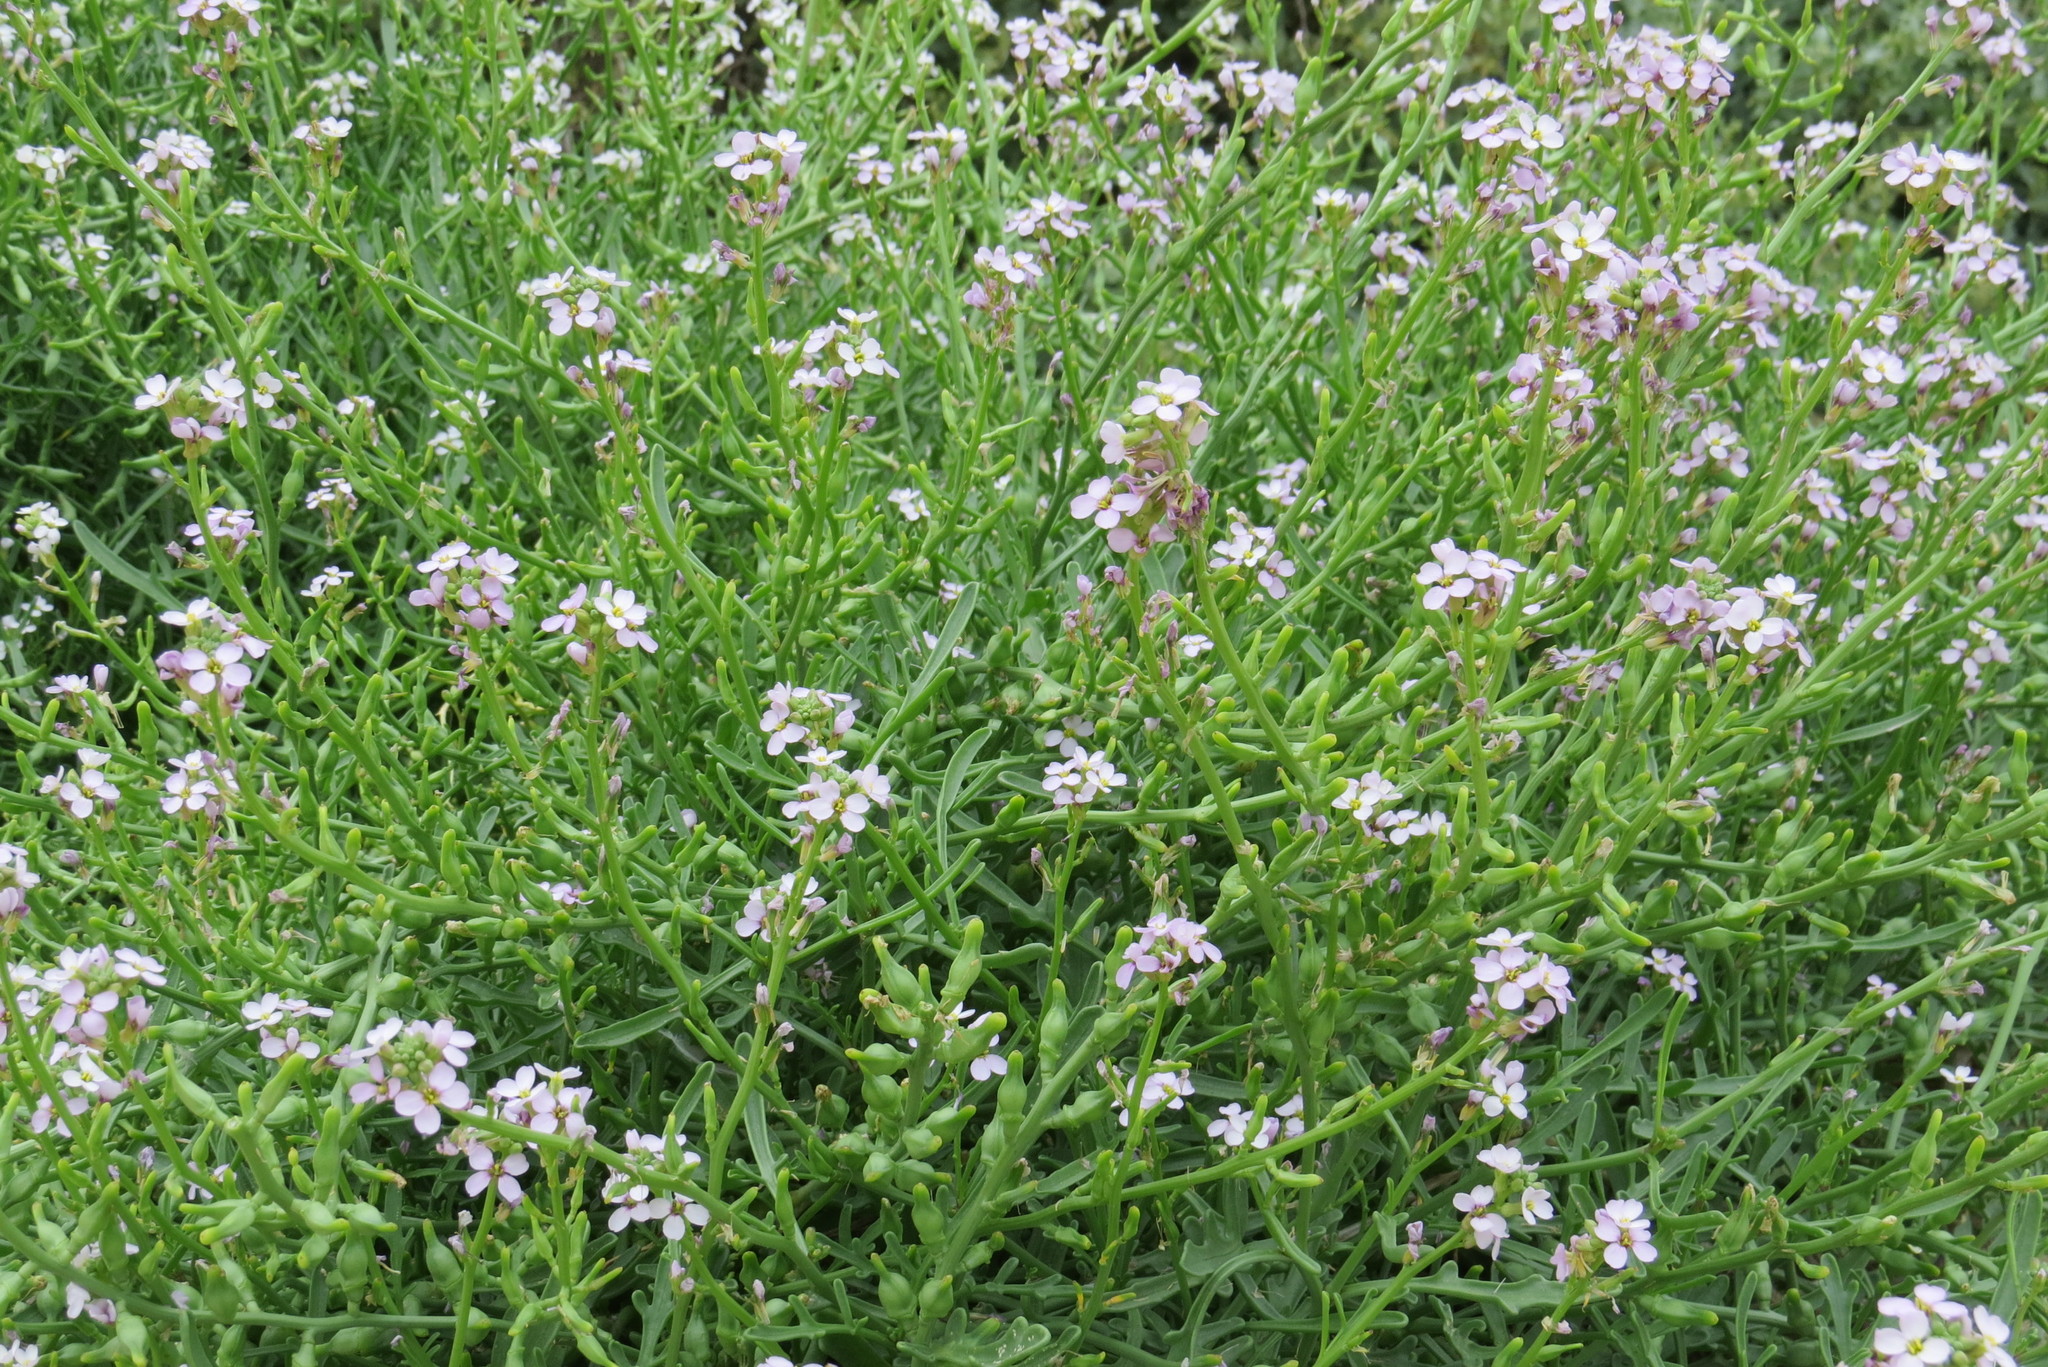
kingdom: Plantae
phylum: Tracheophyta
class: Magnoliopsida
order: Brassicales
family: Brassicaceae
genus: Cakile
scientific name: Cakile maritima
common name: Sea rocket
